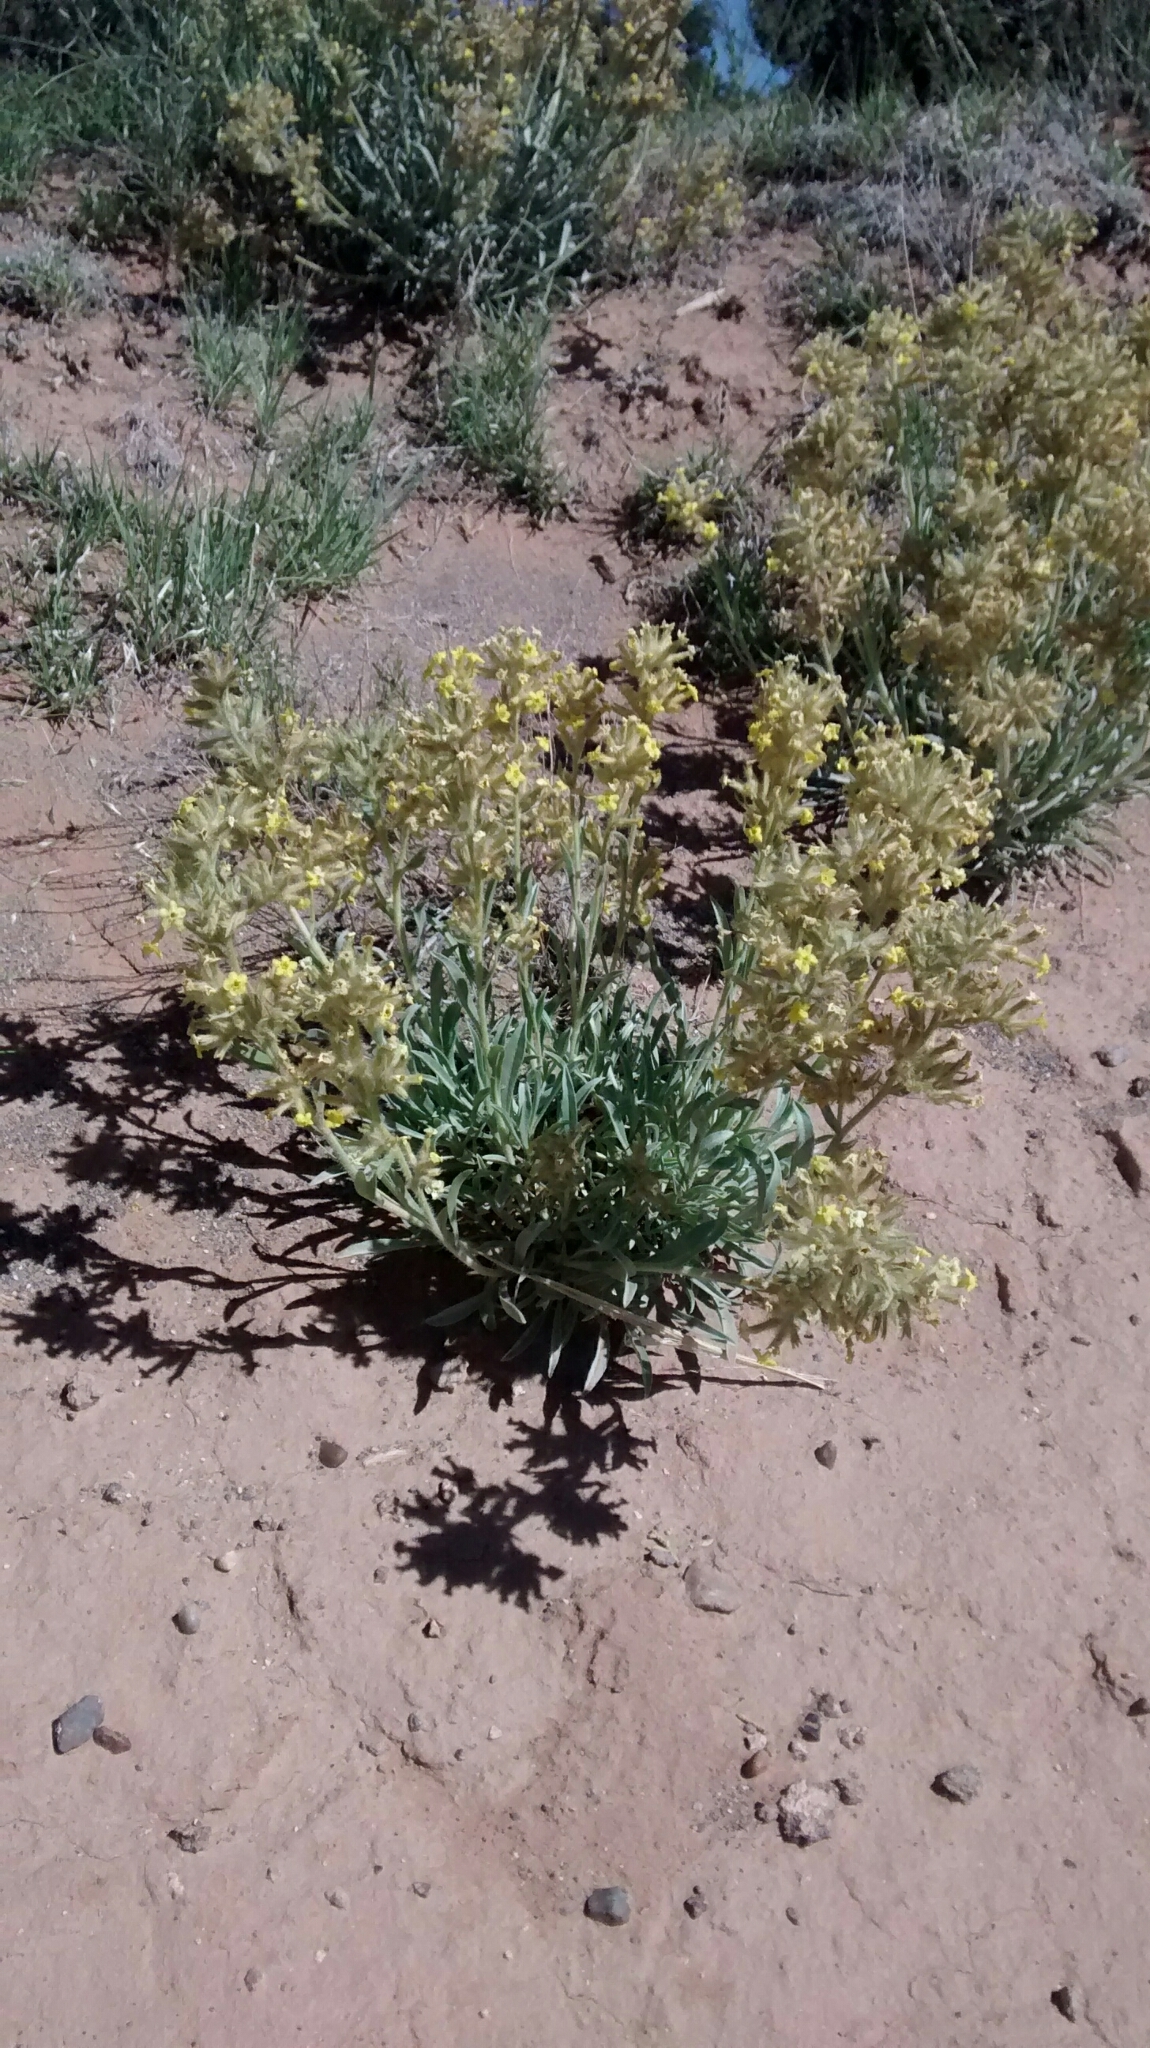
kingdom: Plantae
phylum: Tracheophyta
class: Magnoliopsida
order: Boraginales
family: Boraginaceae
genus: Oreocarya
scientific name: Oreocarya flava
